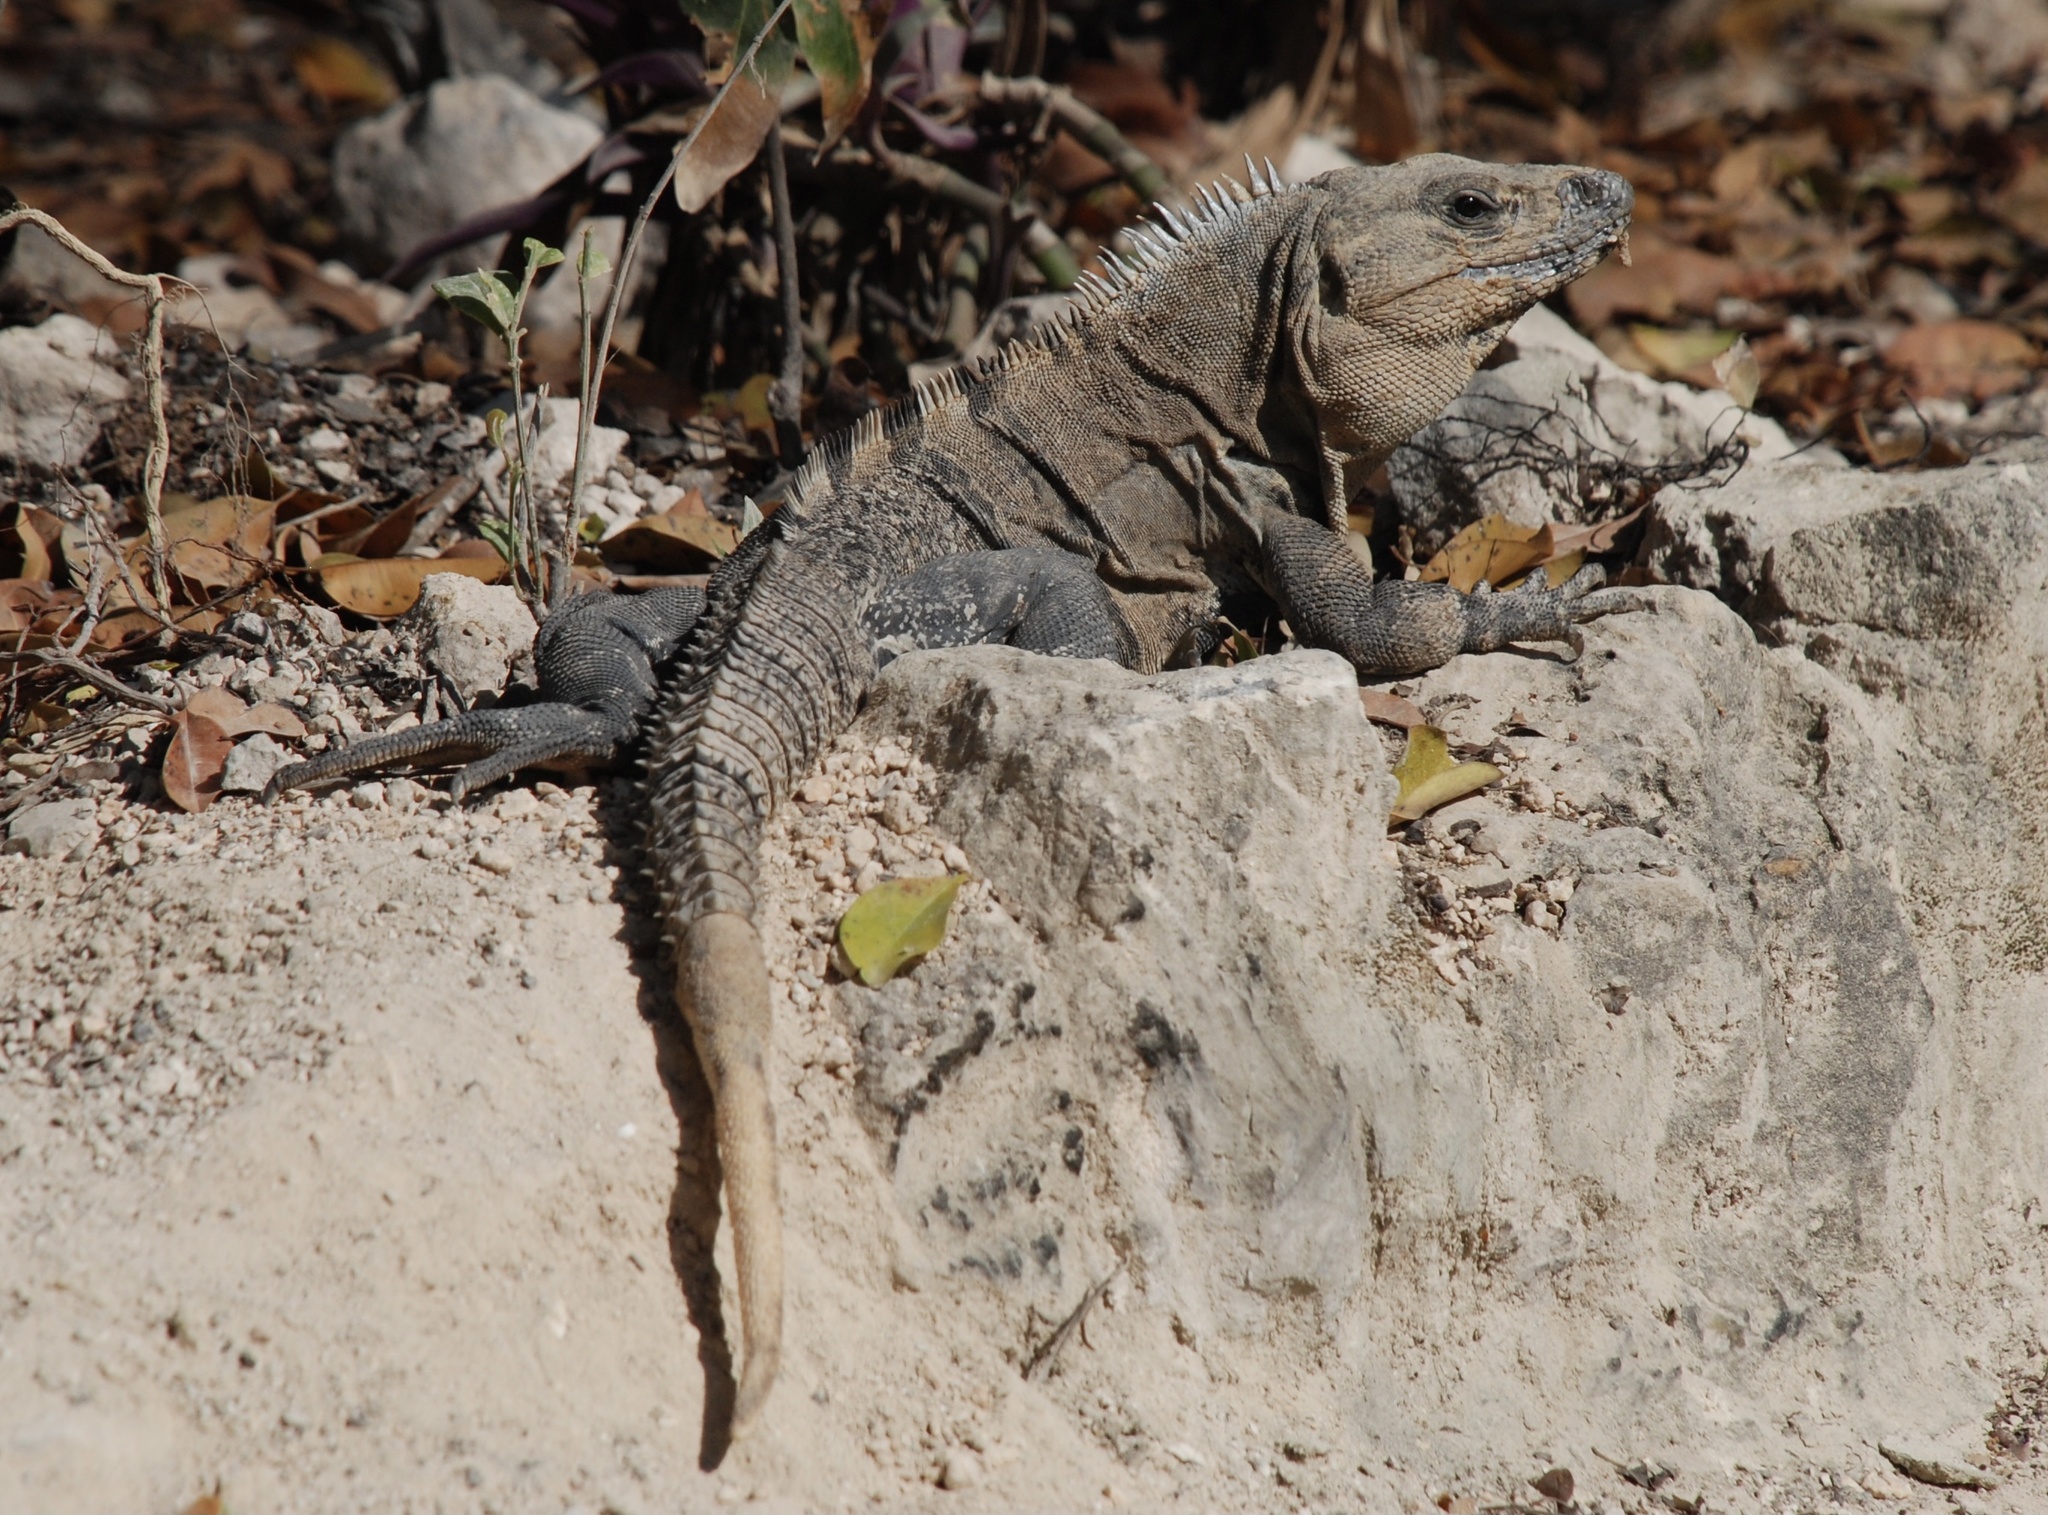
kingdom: Animalia
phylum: Chordata
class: Squamata
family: Iguanidae
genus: Ctenosaura
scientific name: Ctenosaura similis
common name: Black spiny-tailed iguana
